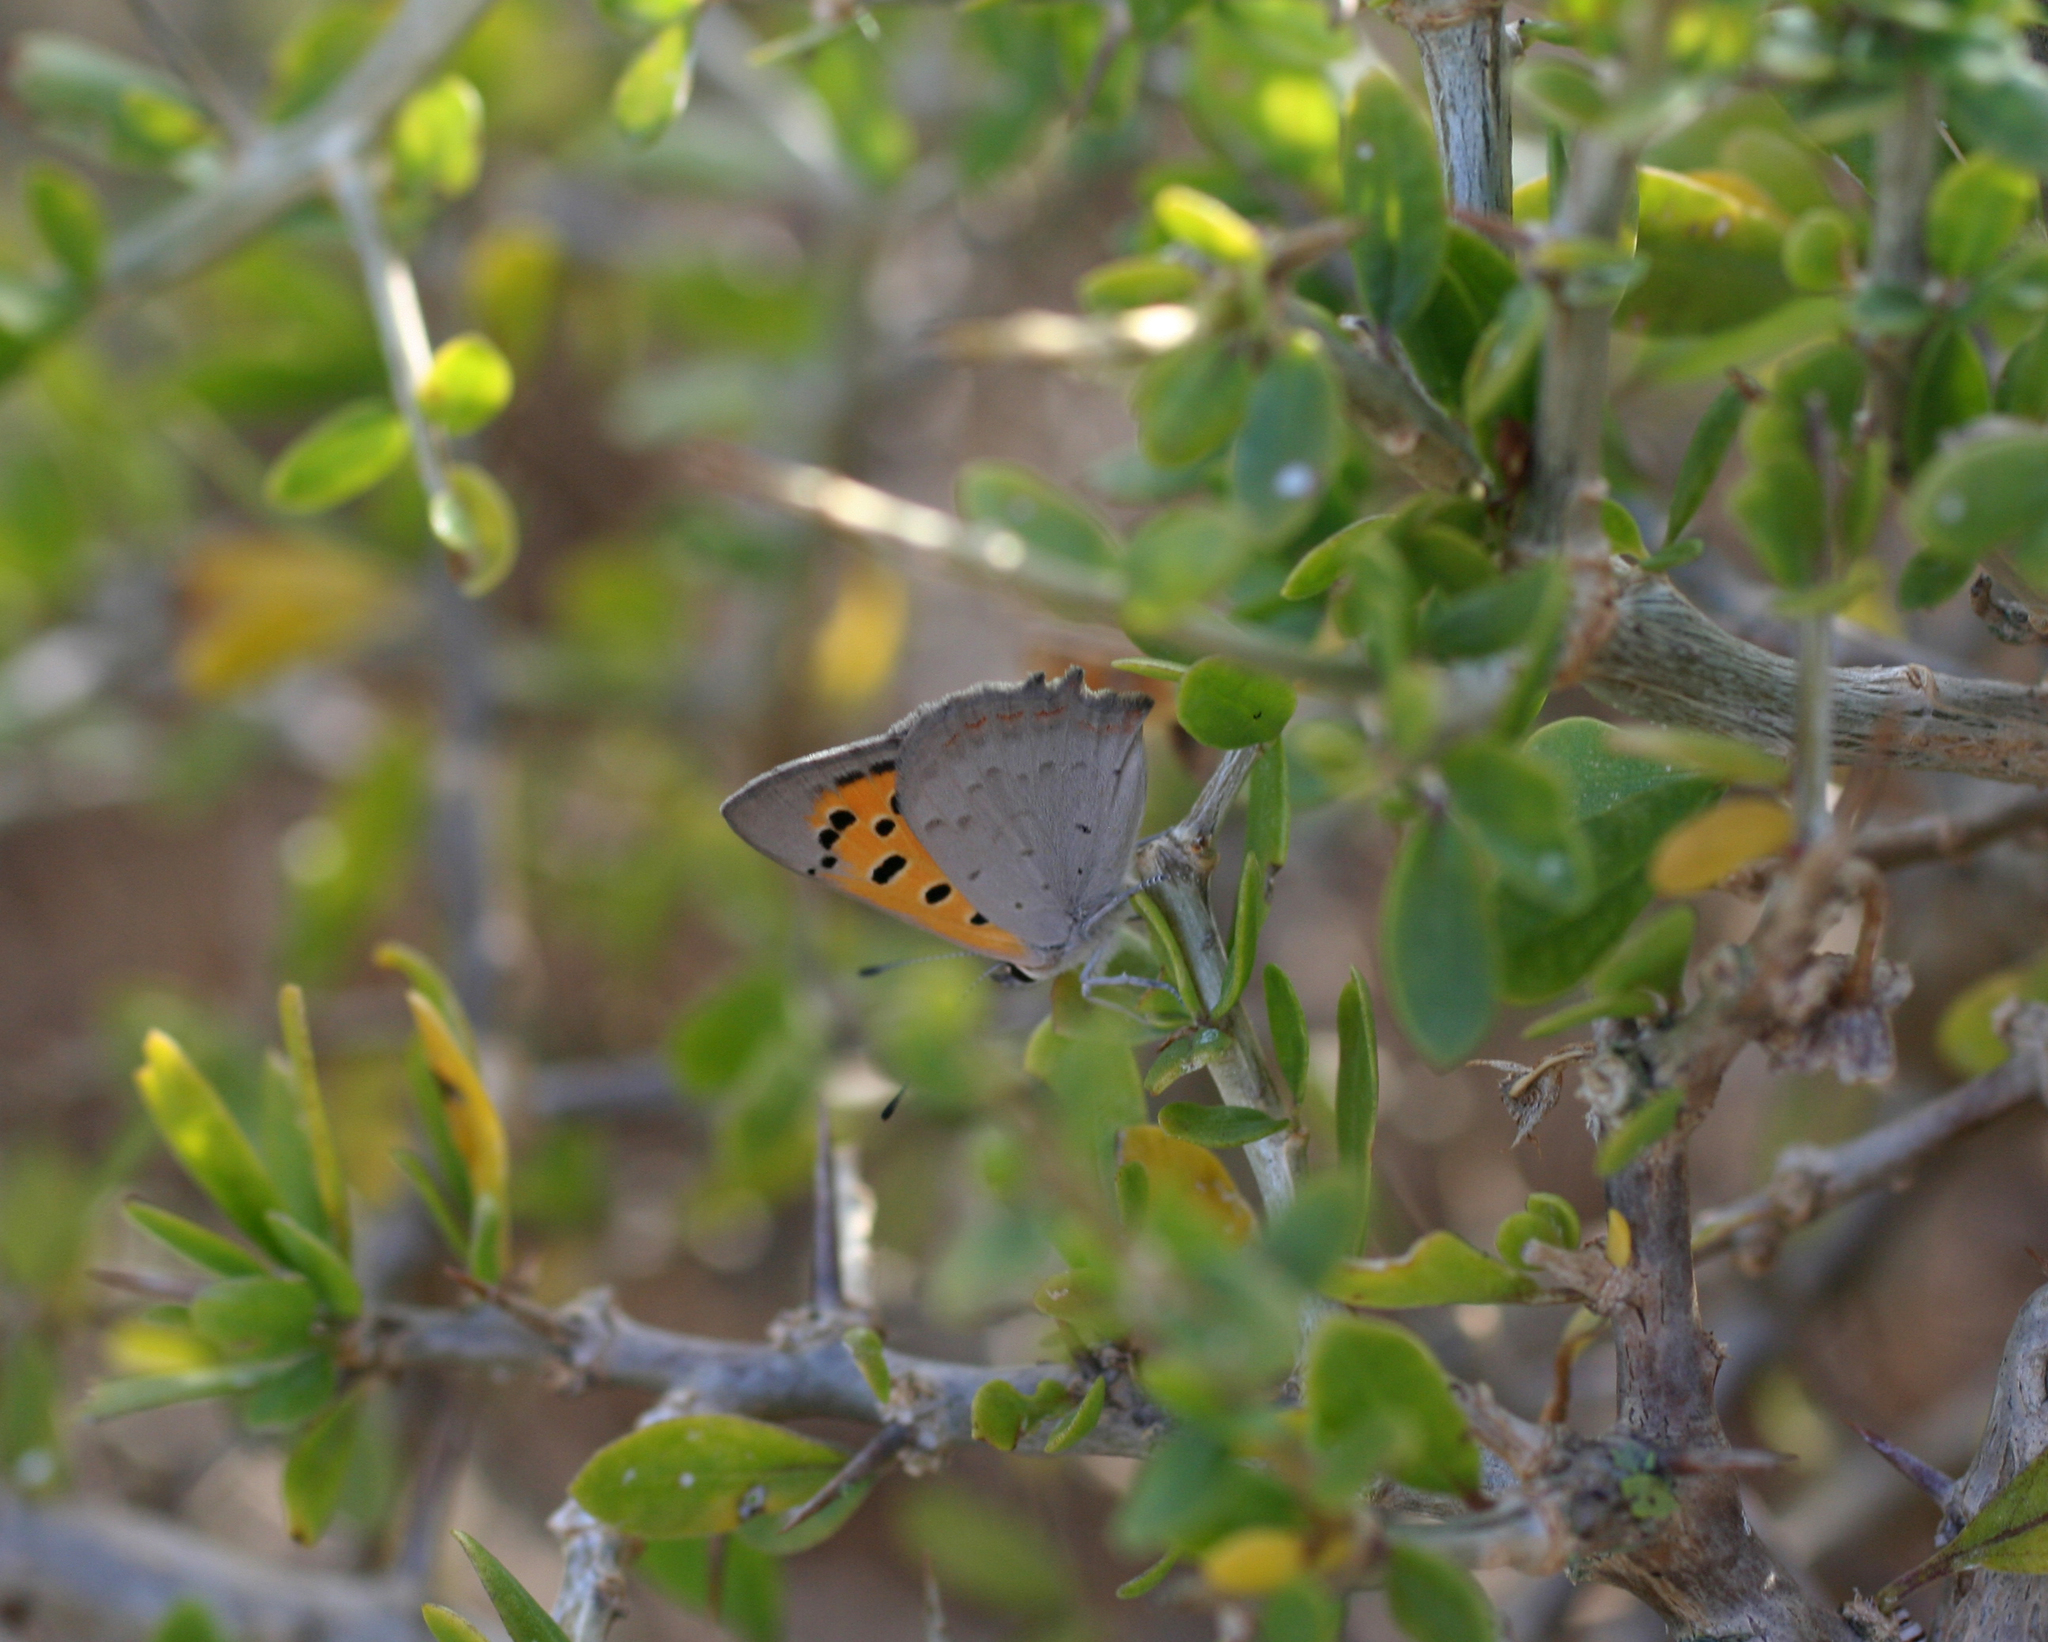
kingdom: Animalia
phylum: Arthropoda
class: Insecta
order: Lepidoptera
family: Lycaenidae
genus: Lycaena
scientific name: Lycaena phlaeas
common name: Small copper
